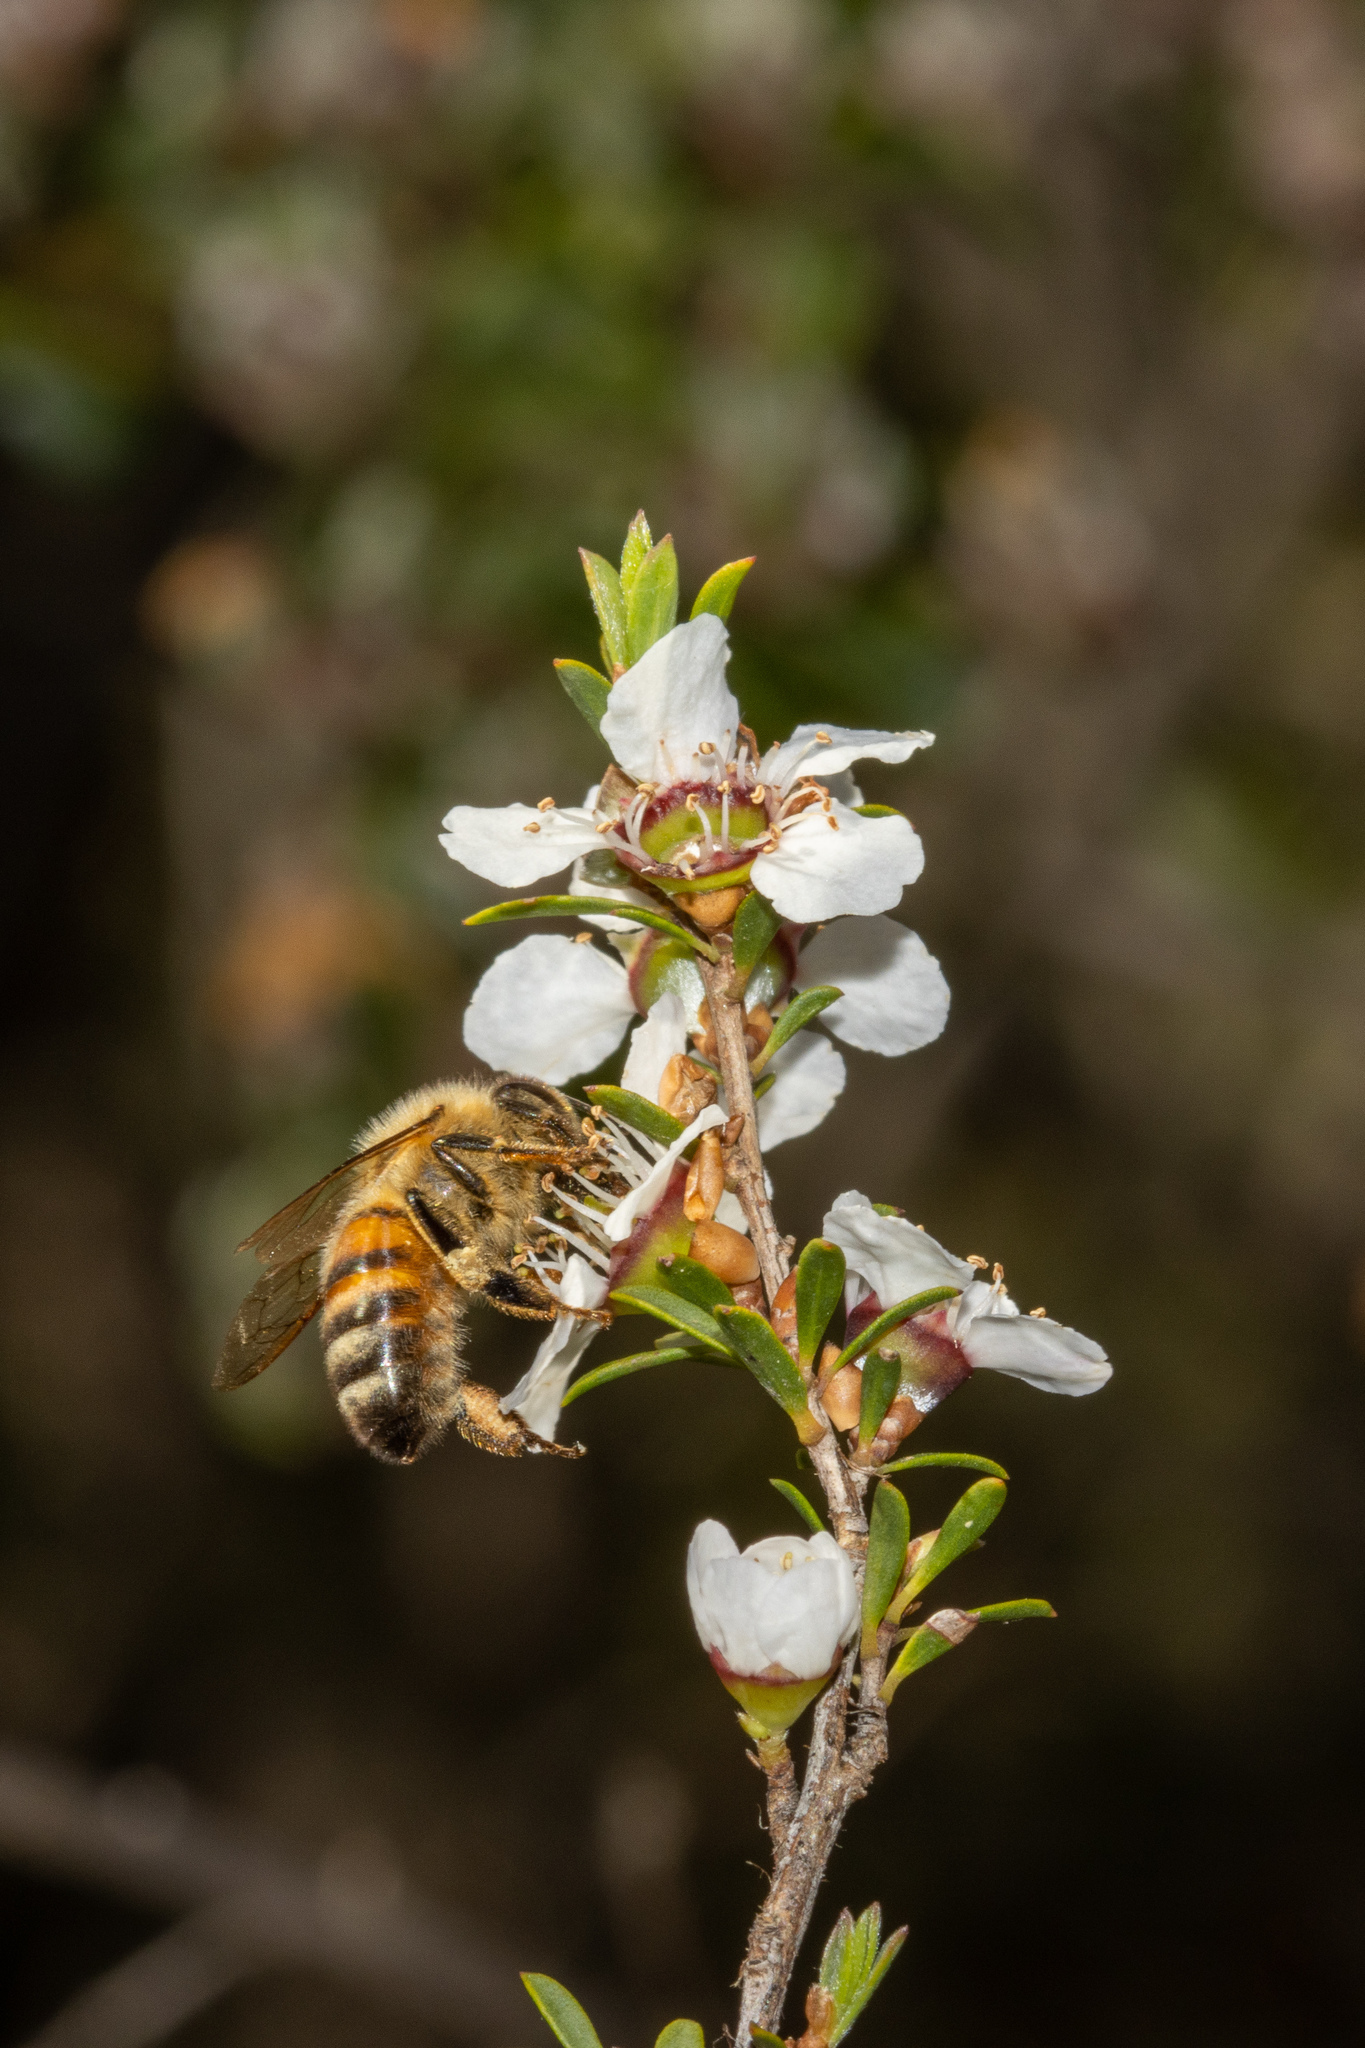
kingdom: Animalia
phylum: Arthropoda
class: Insecta
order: Hymenoptera
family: Apidae
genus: Apis
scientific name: Apis mellifera
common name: Honey bee
